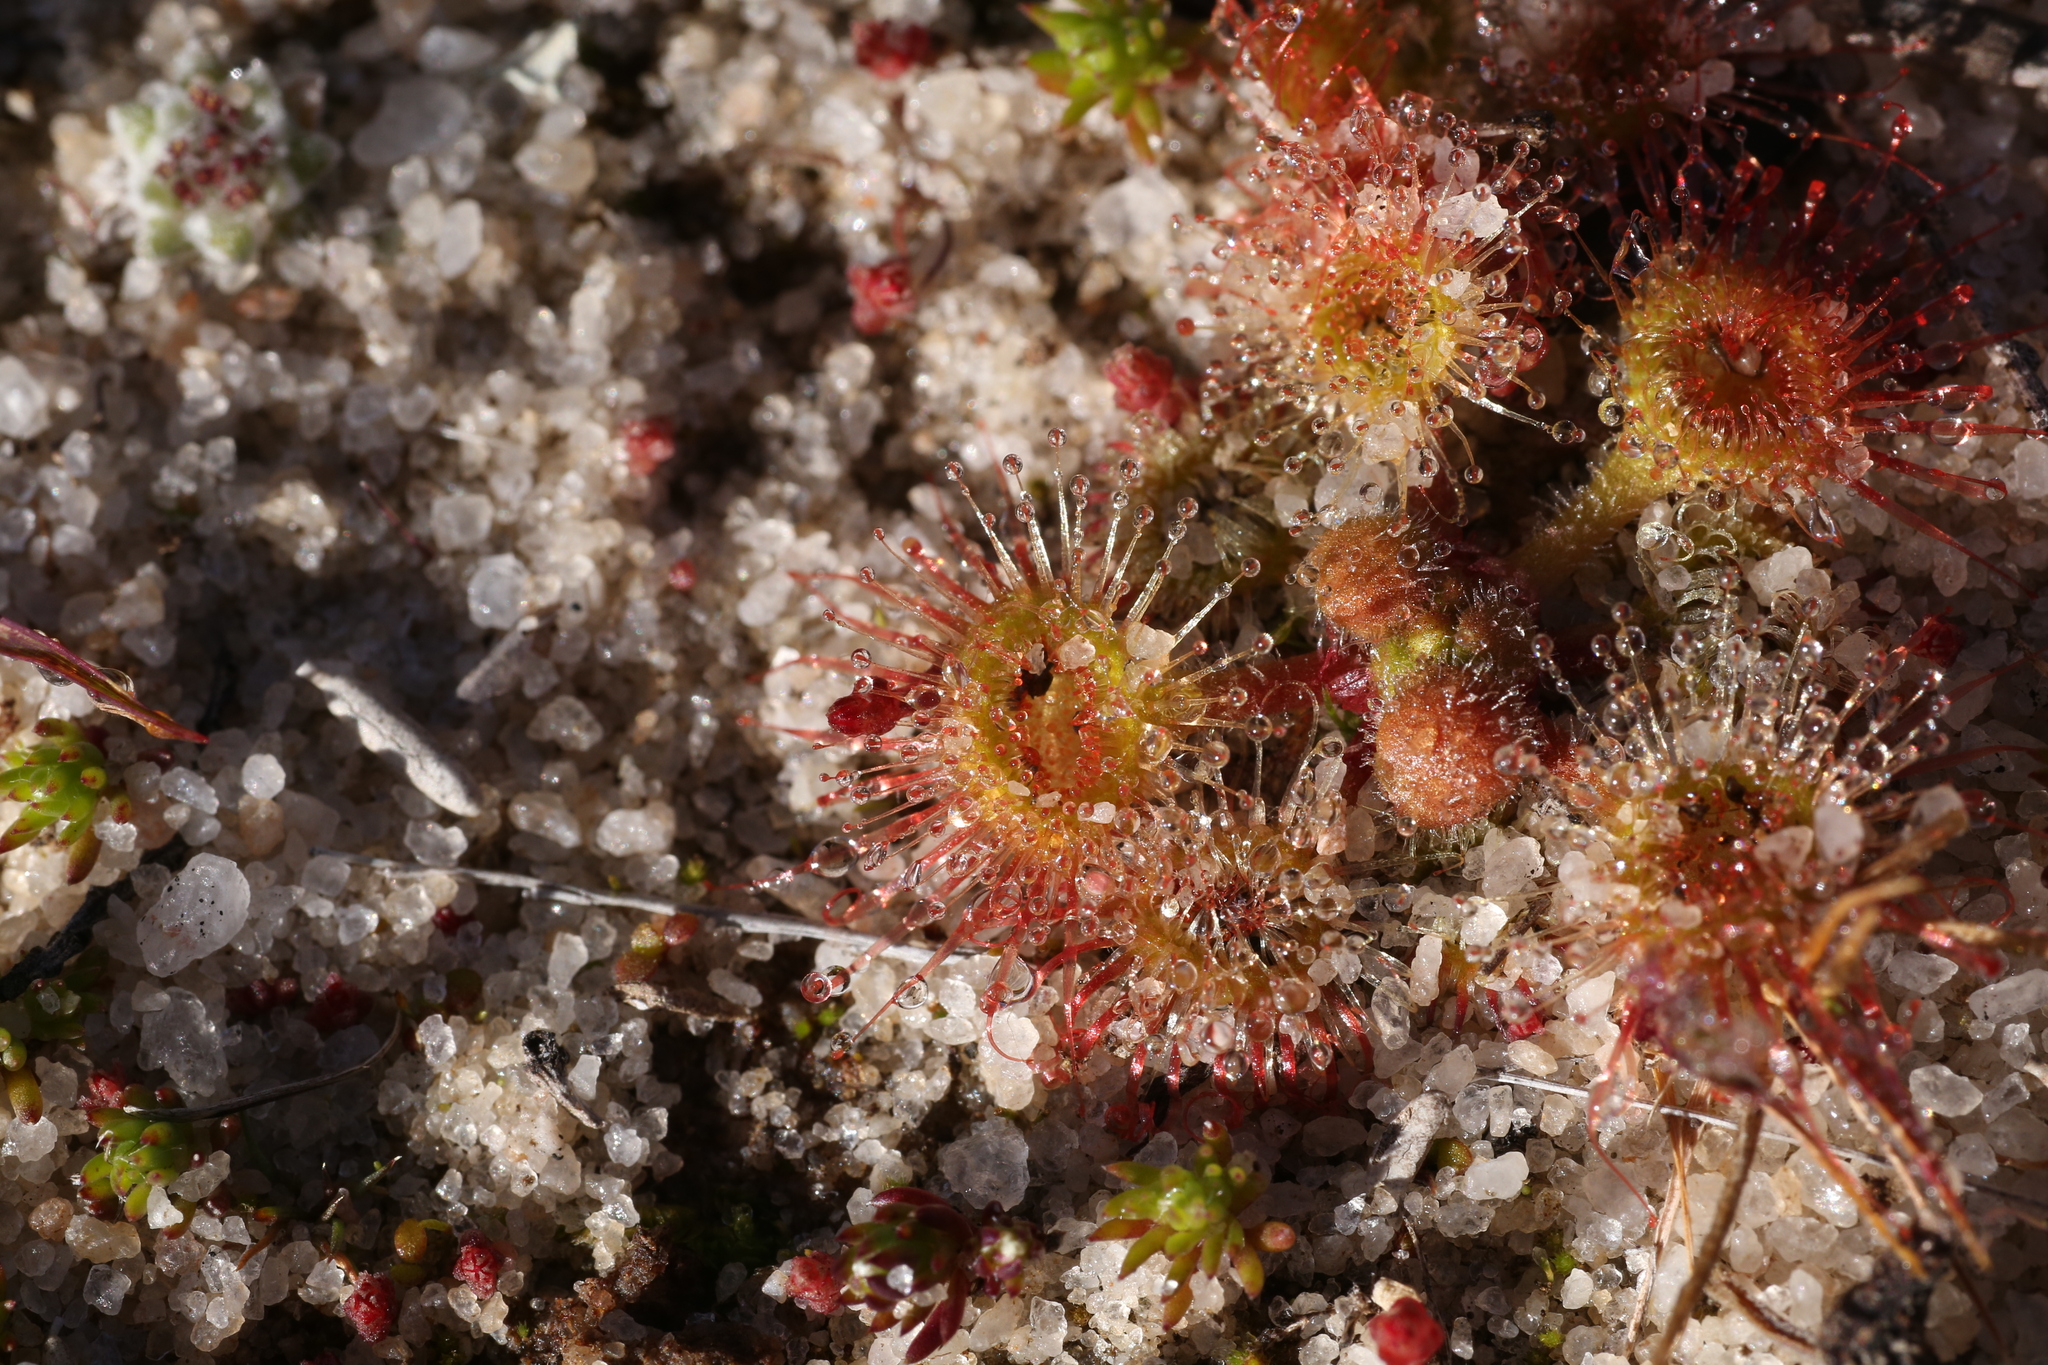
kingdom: Plantae
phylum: Tracheophyta
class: Magnoliopsida
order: Caryophyllales
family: Droseraceae
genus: Drosera
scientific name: Drosera glanduligera
